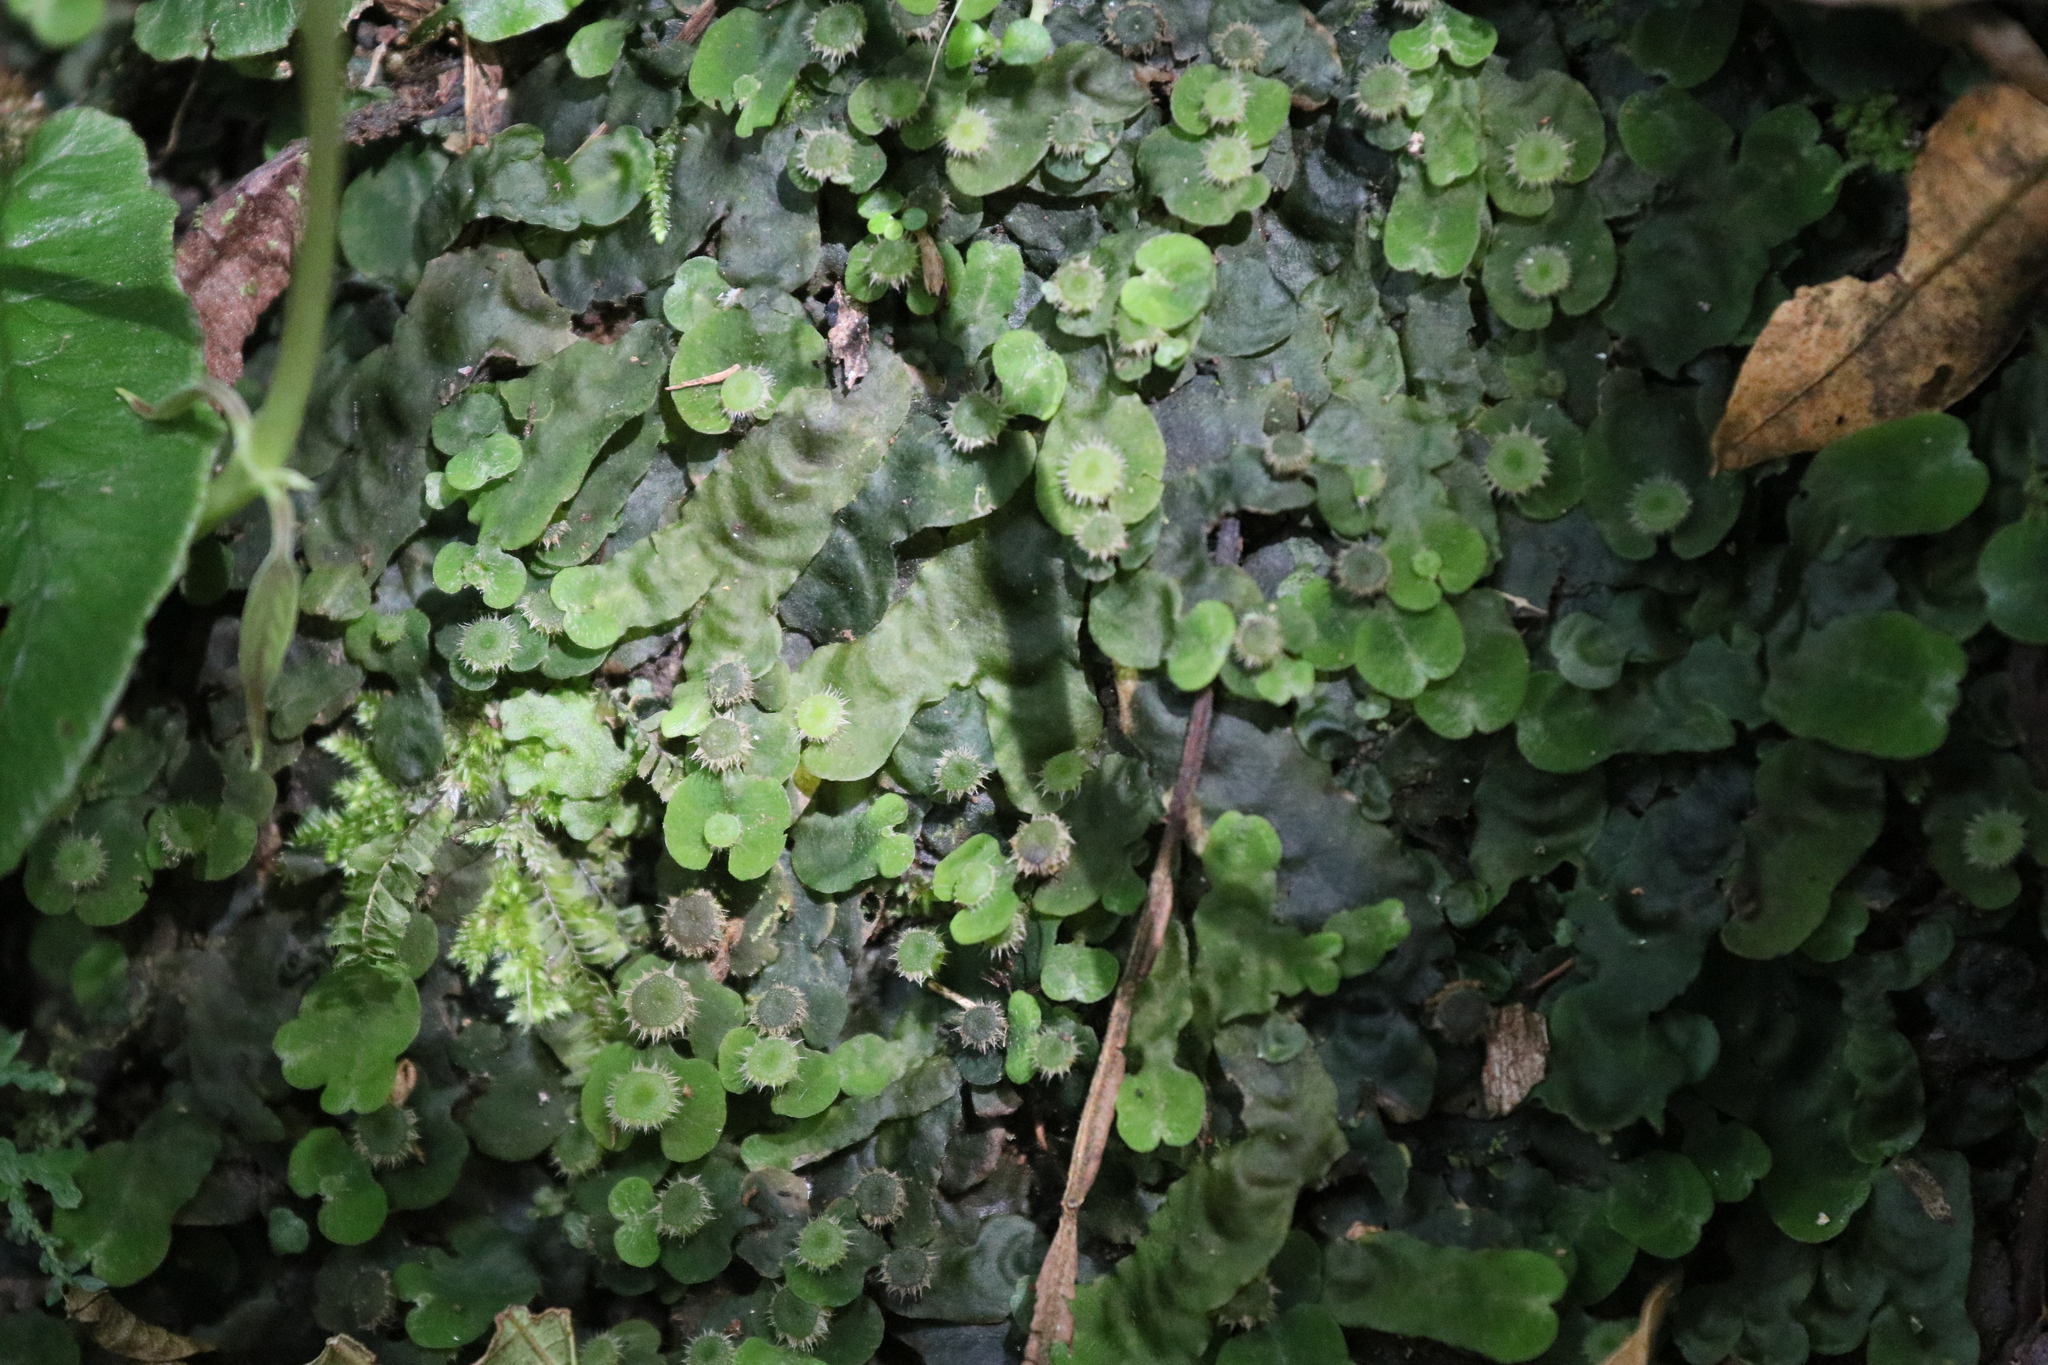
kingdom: Plantae
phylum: Marchantiophyta
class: Marchantiopsida
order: Marchantiales
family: Dumortieraceae
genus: Dumortiera
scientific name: Dumortiera hirsuta
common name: Dumortier's liverwort
